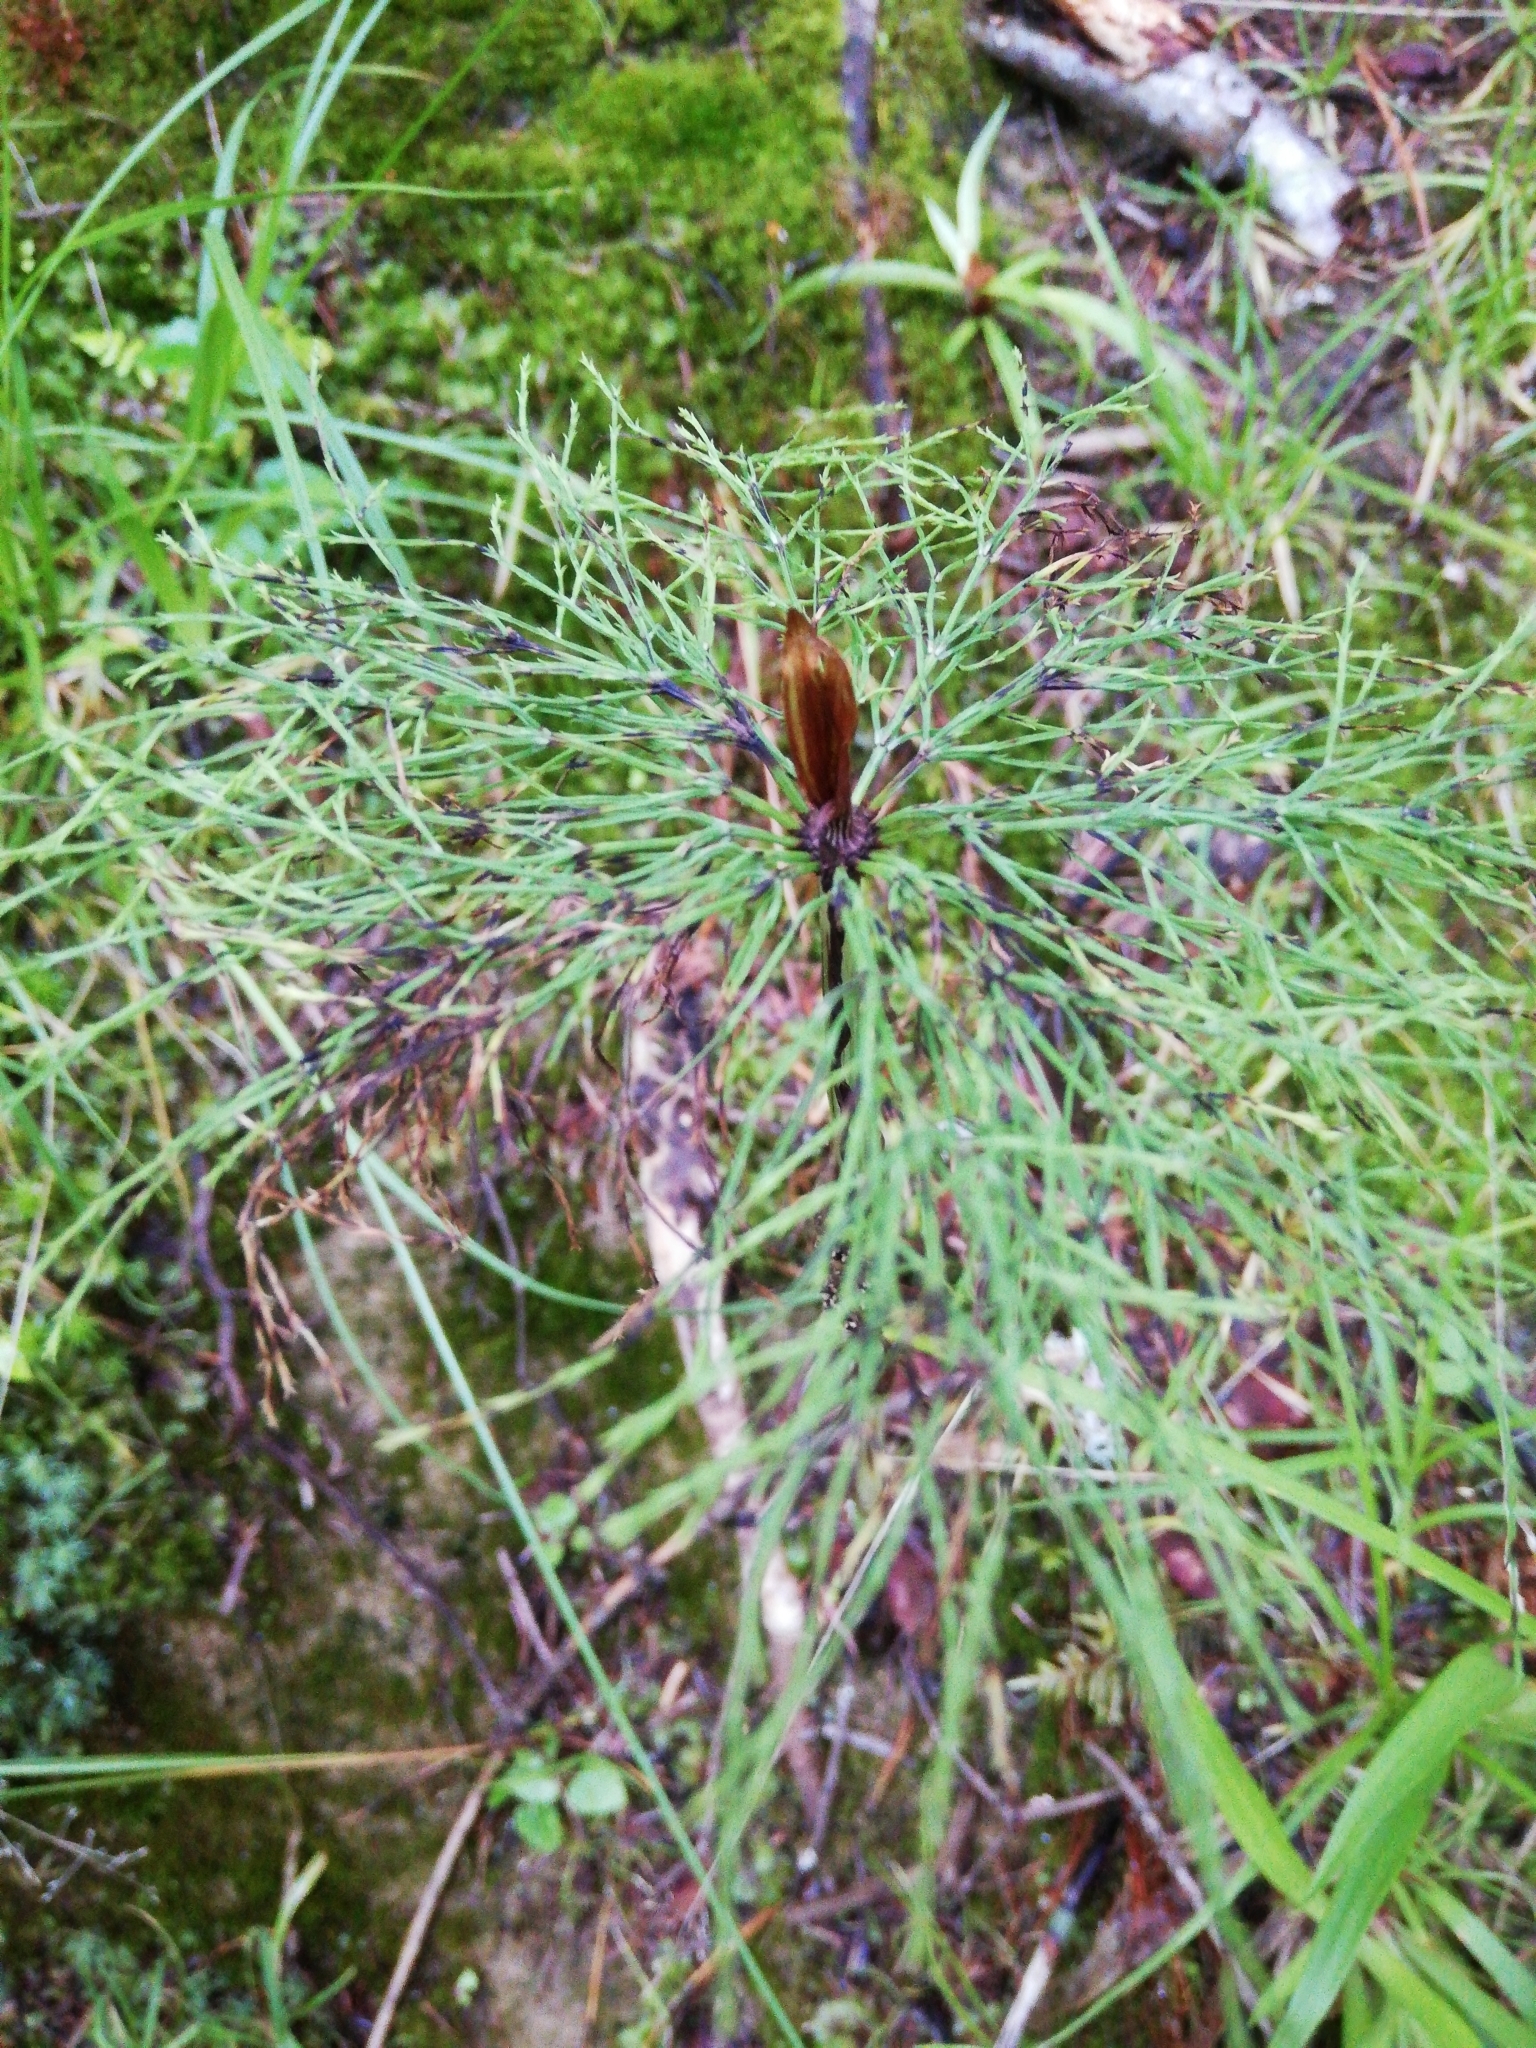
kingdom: Plantae
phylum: Tracheophyta
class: Polypodiopsida
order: Equisetales
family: Equisetaceae
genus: Equisetum
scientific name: Equisetum sylvaticum
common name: Wood horsetail
